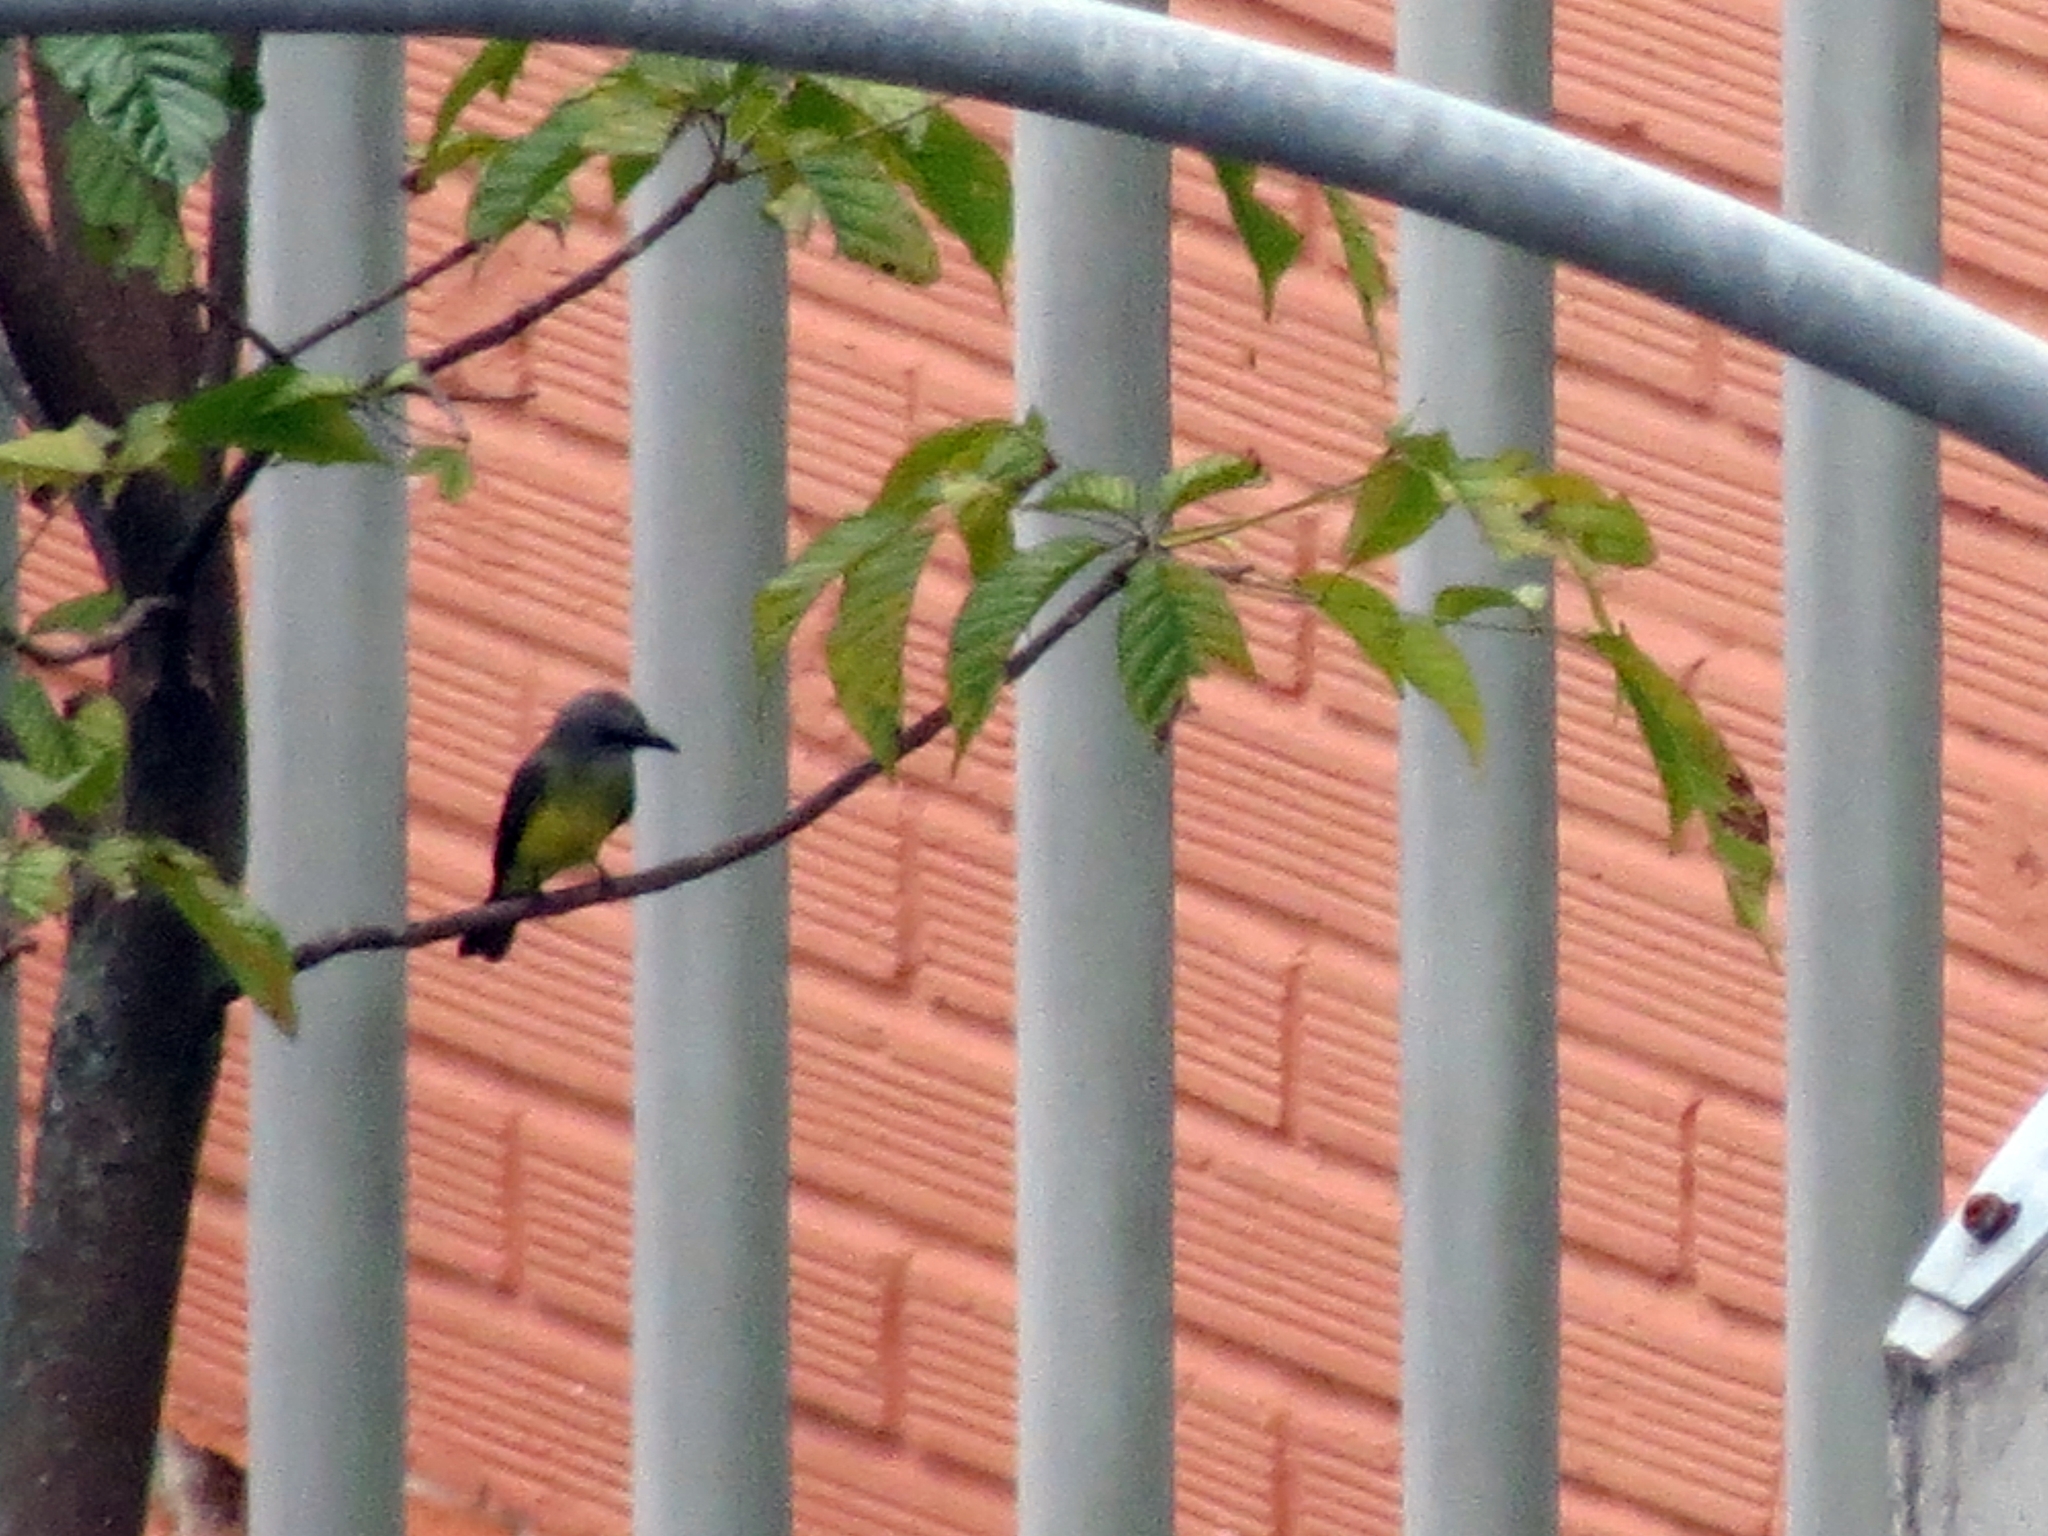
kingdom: Animalia
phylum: Chordata
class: Aves
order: Passeriformes
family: Tyrannidae
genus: Tyrannus
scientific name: Tyrannus melancholicus
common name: Tropical kingbird
